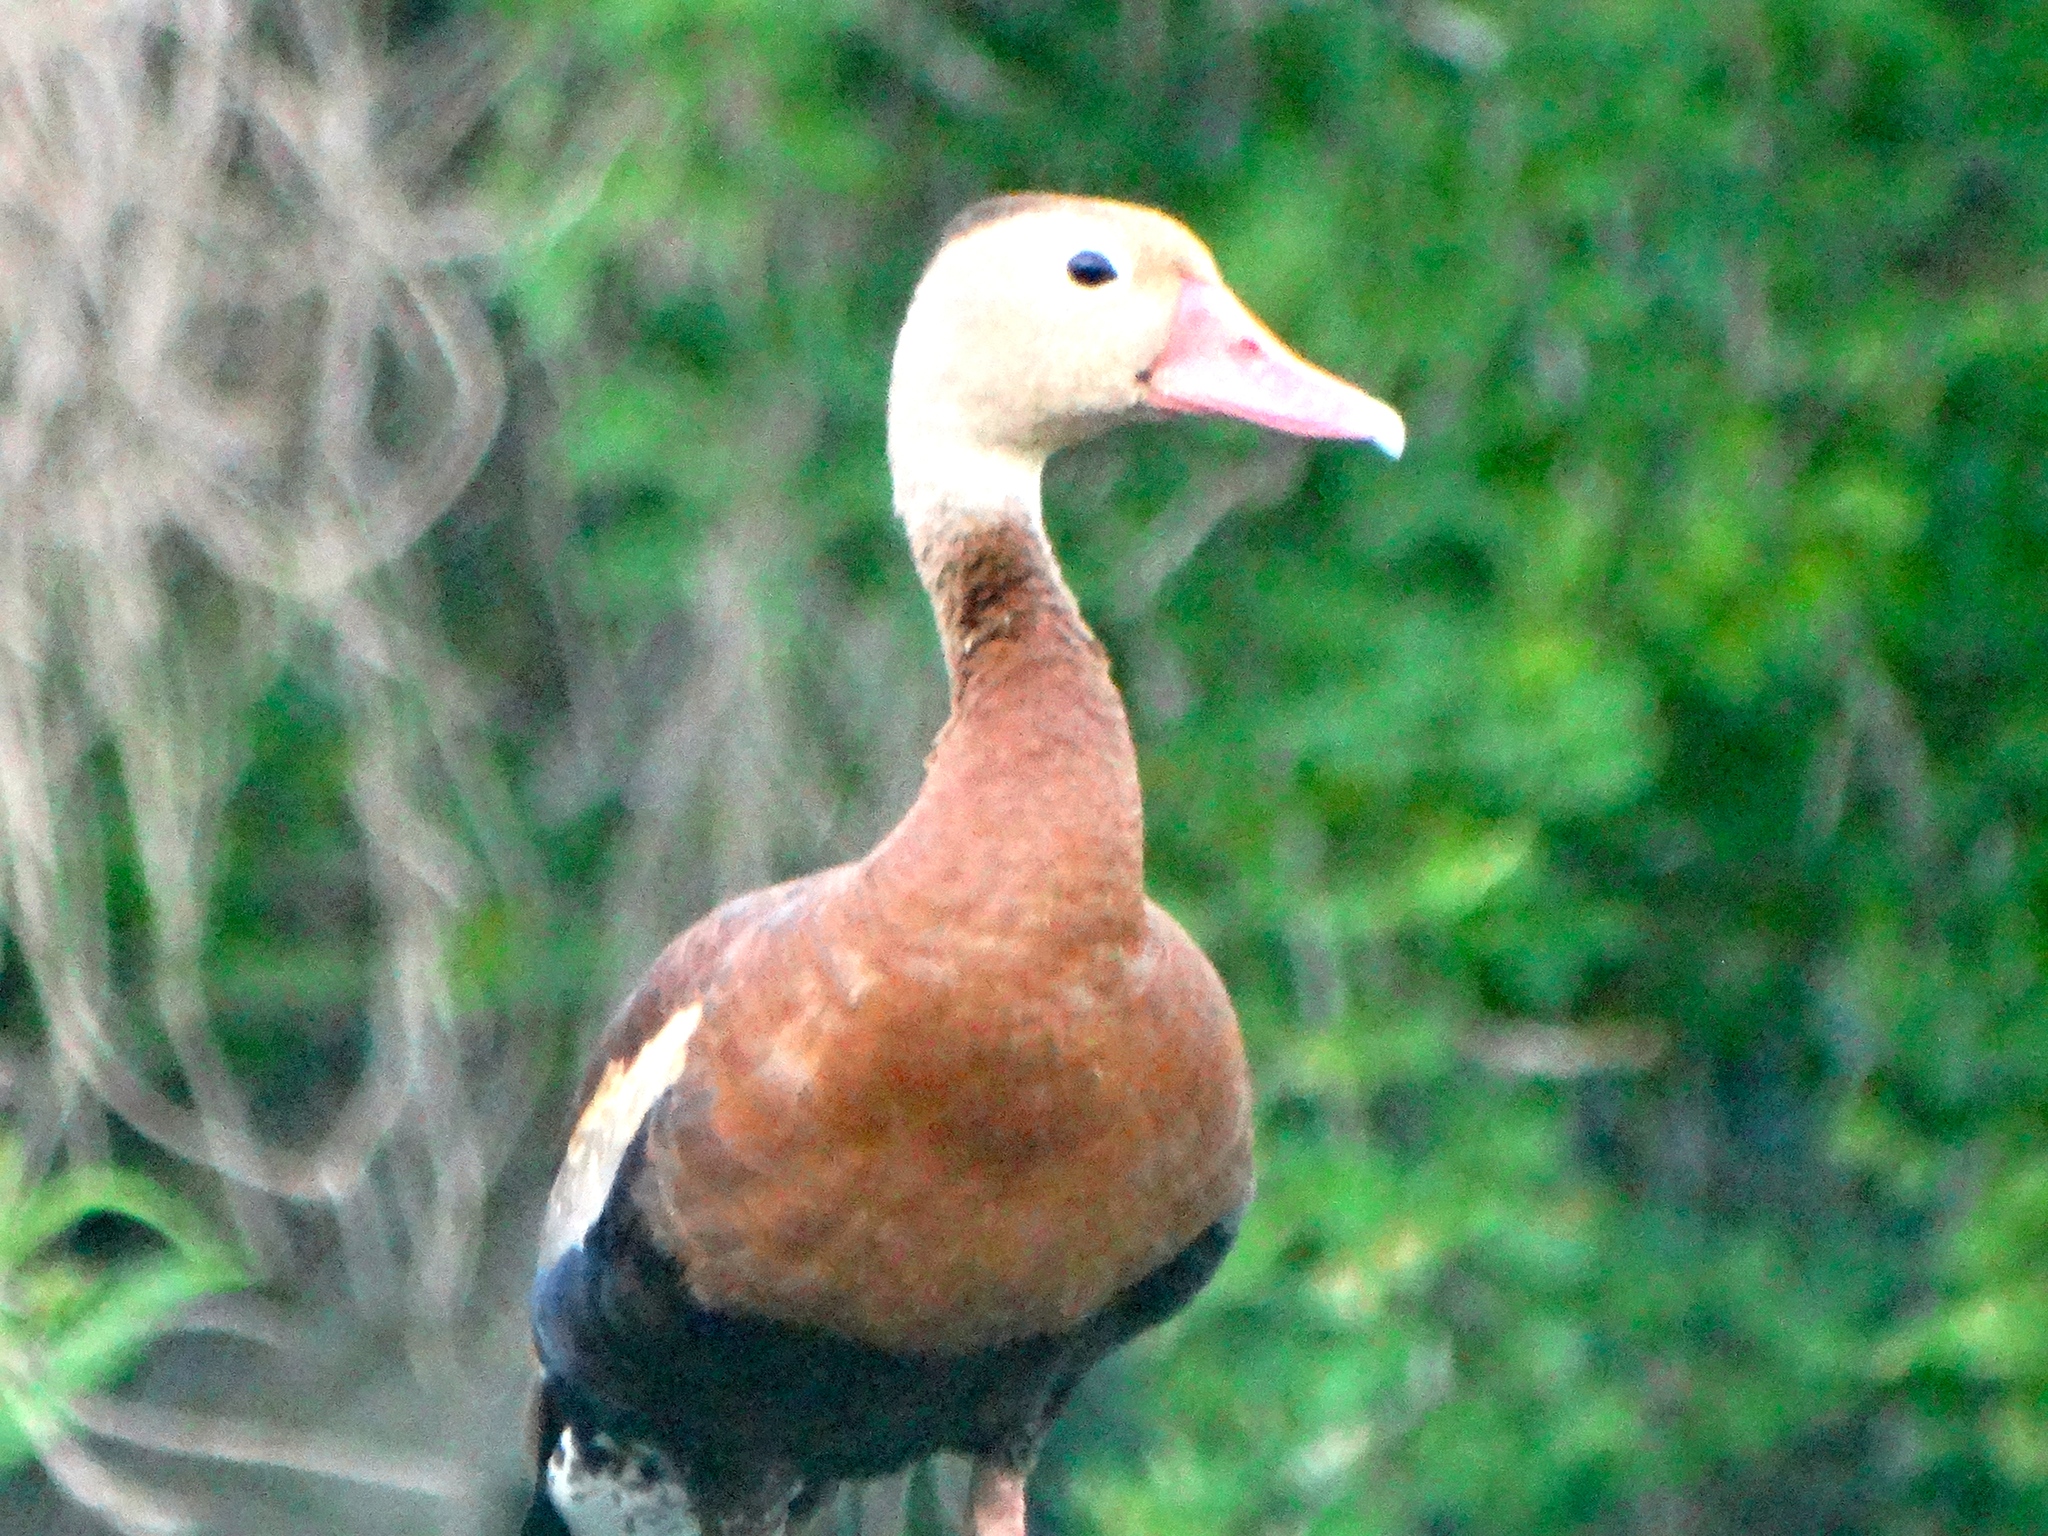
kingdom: Animalia
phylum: Chordata
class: Aves
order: Anseriformes
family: Anatidae
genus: Dendrocygna
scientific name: Dendrocygna autumnalis
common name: Black-bellied whistling duck
